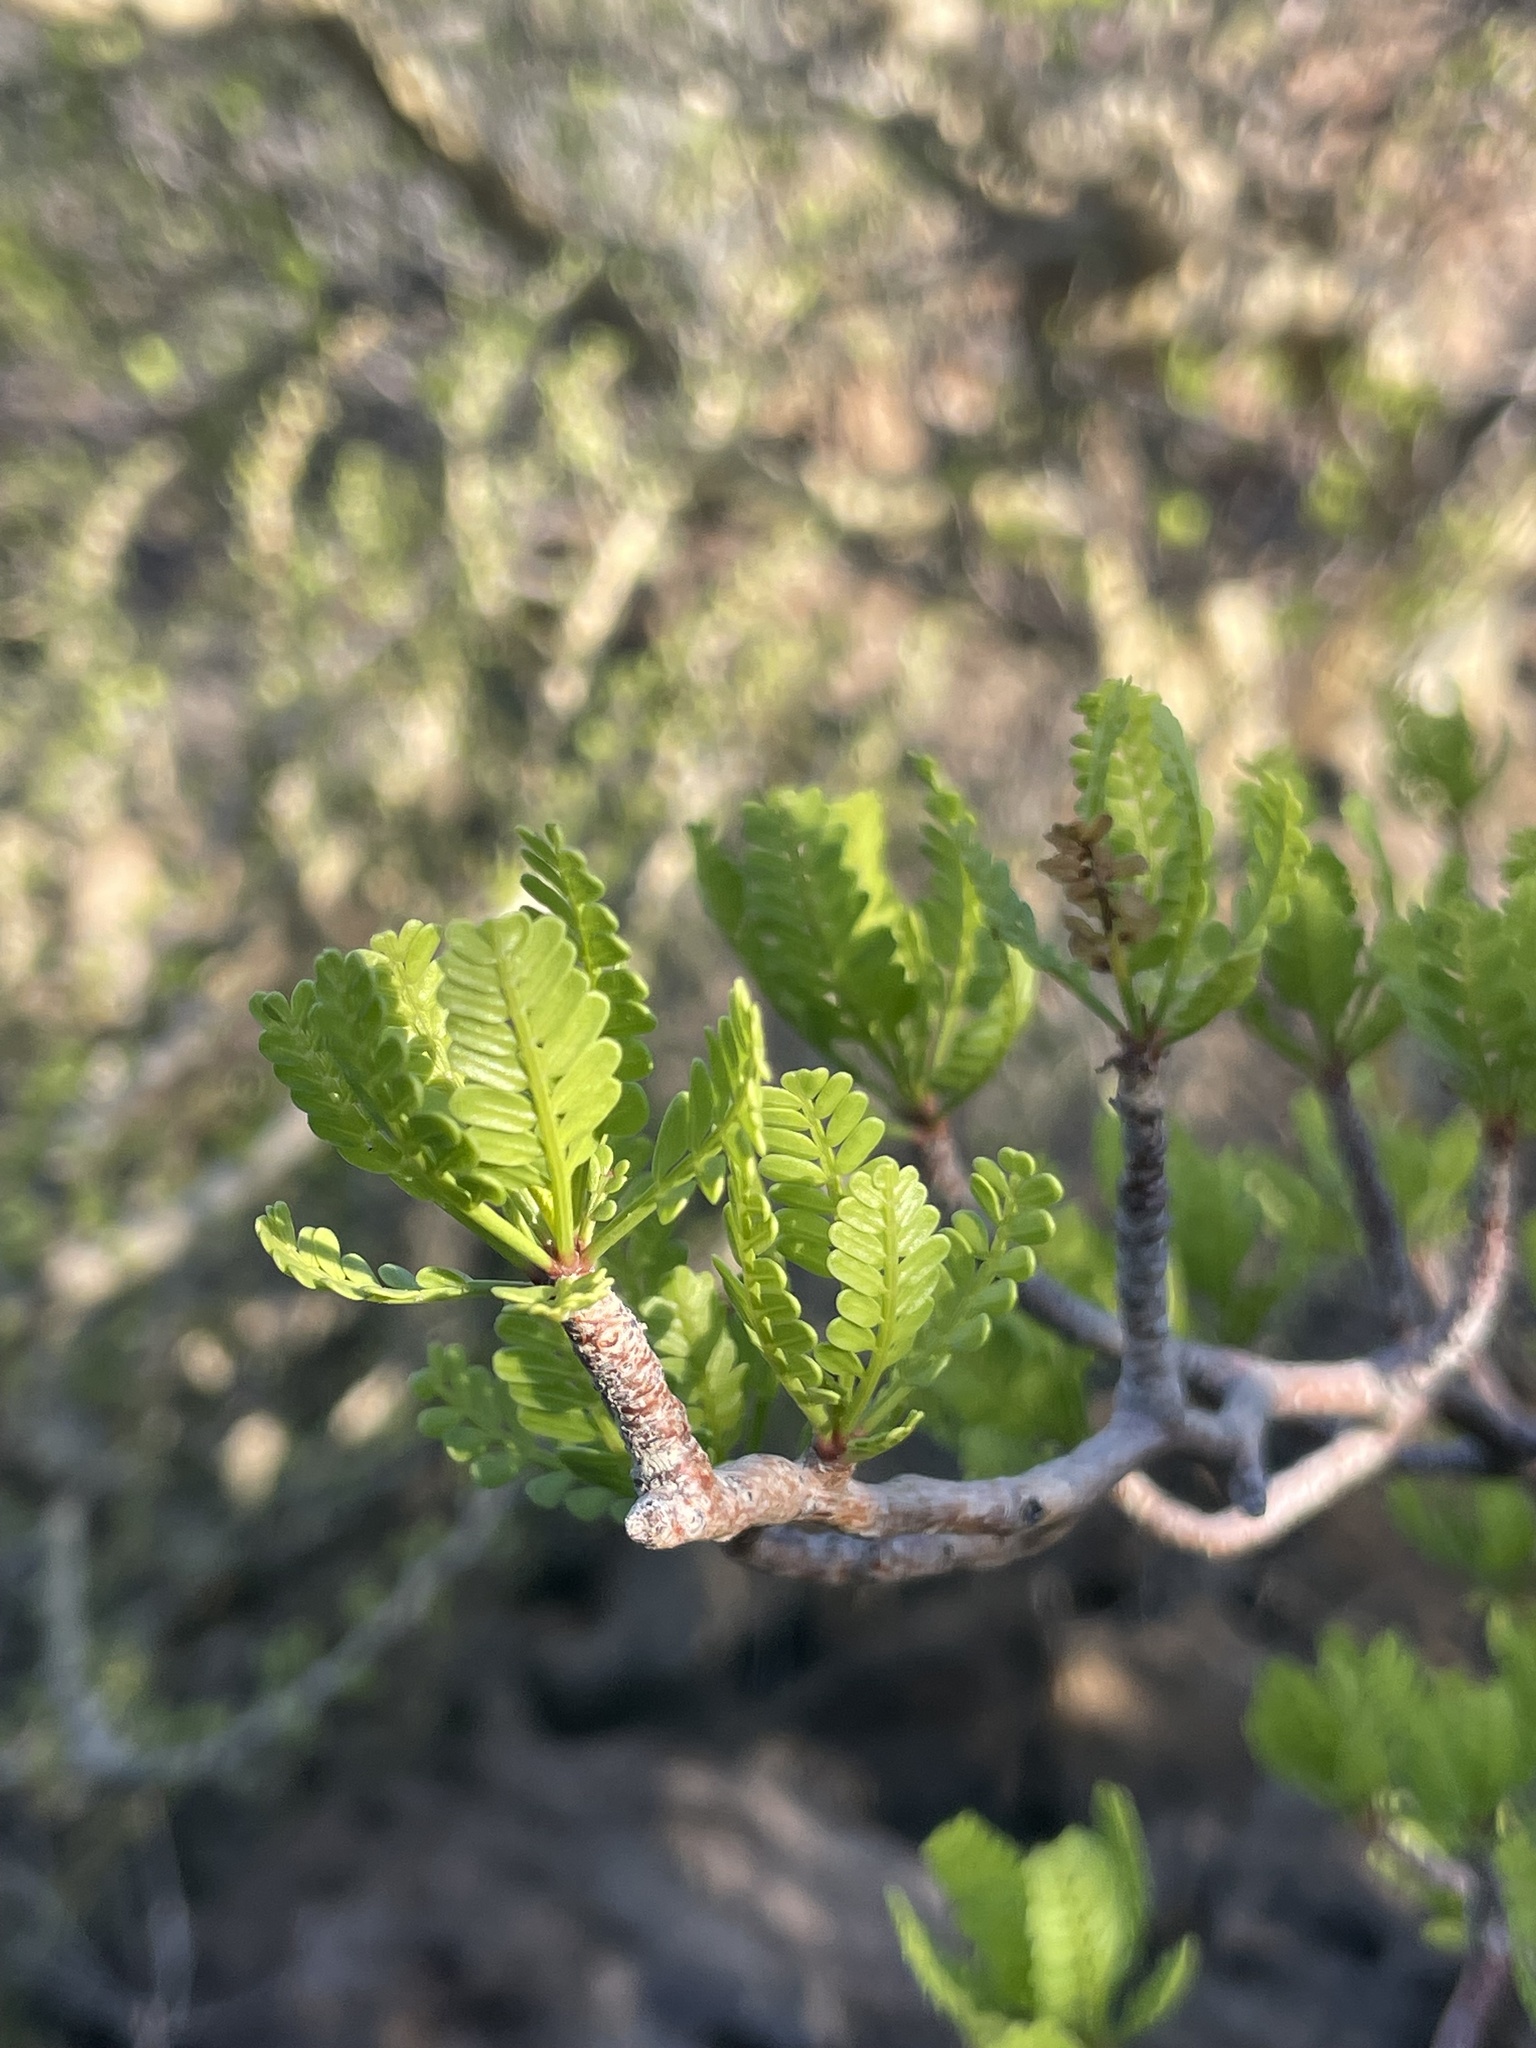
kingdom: Plantae
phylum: Tracheophyta
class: Magnoliopsida
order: Sapindales
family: Burseraceae
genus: Bursera
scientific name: Bursera microphylla
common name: Elephant tree
